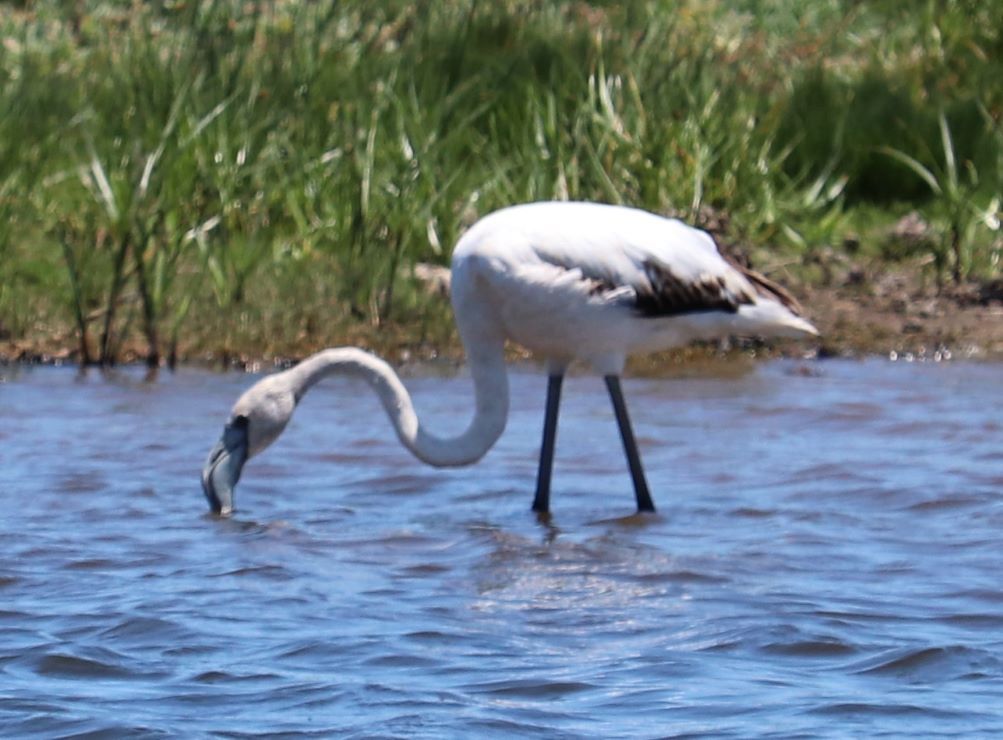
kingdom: Animalia
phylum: Chordata
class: Aves
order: Phoenicopteriformes
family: Phoenicopteridae
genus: Phoenicopterus
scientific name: Phoenicopterus roseus
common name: Greater flamingo
